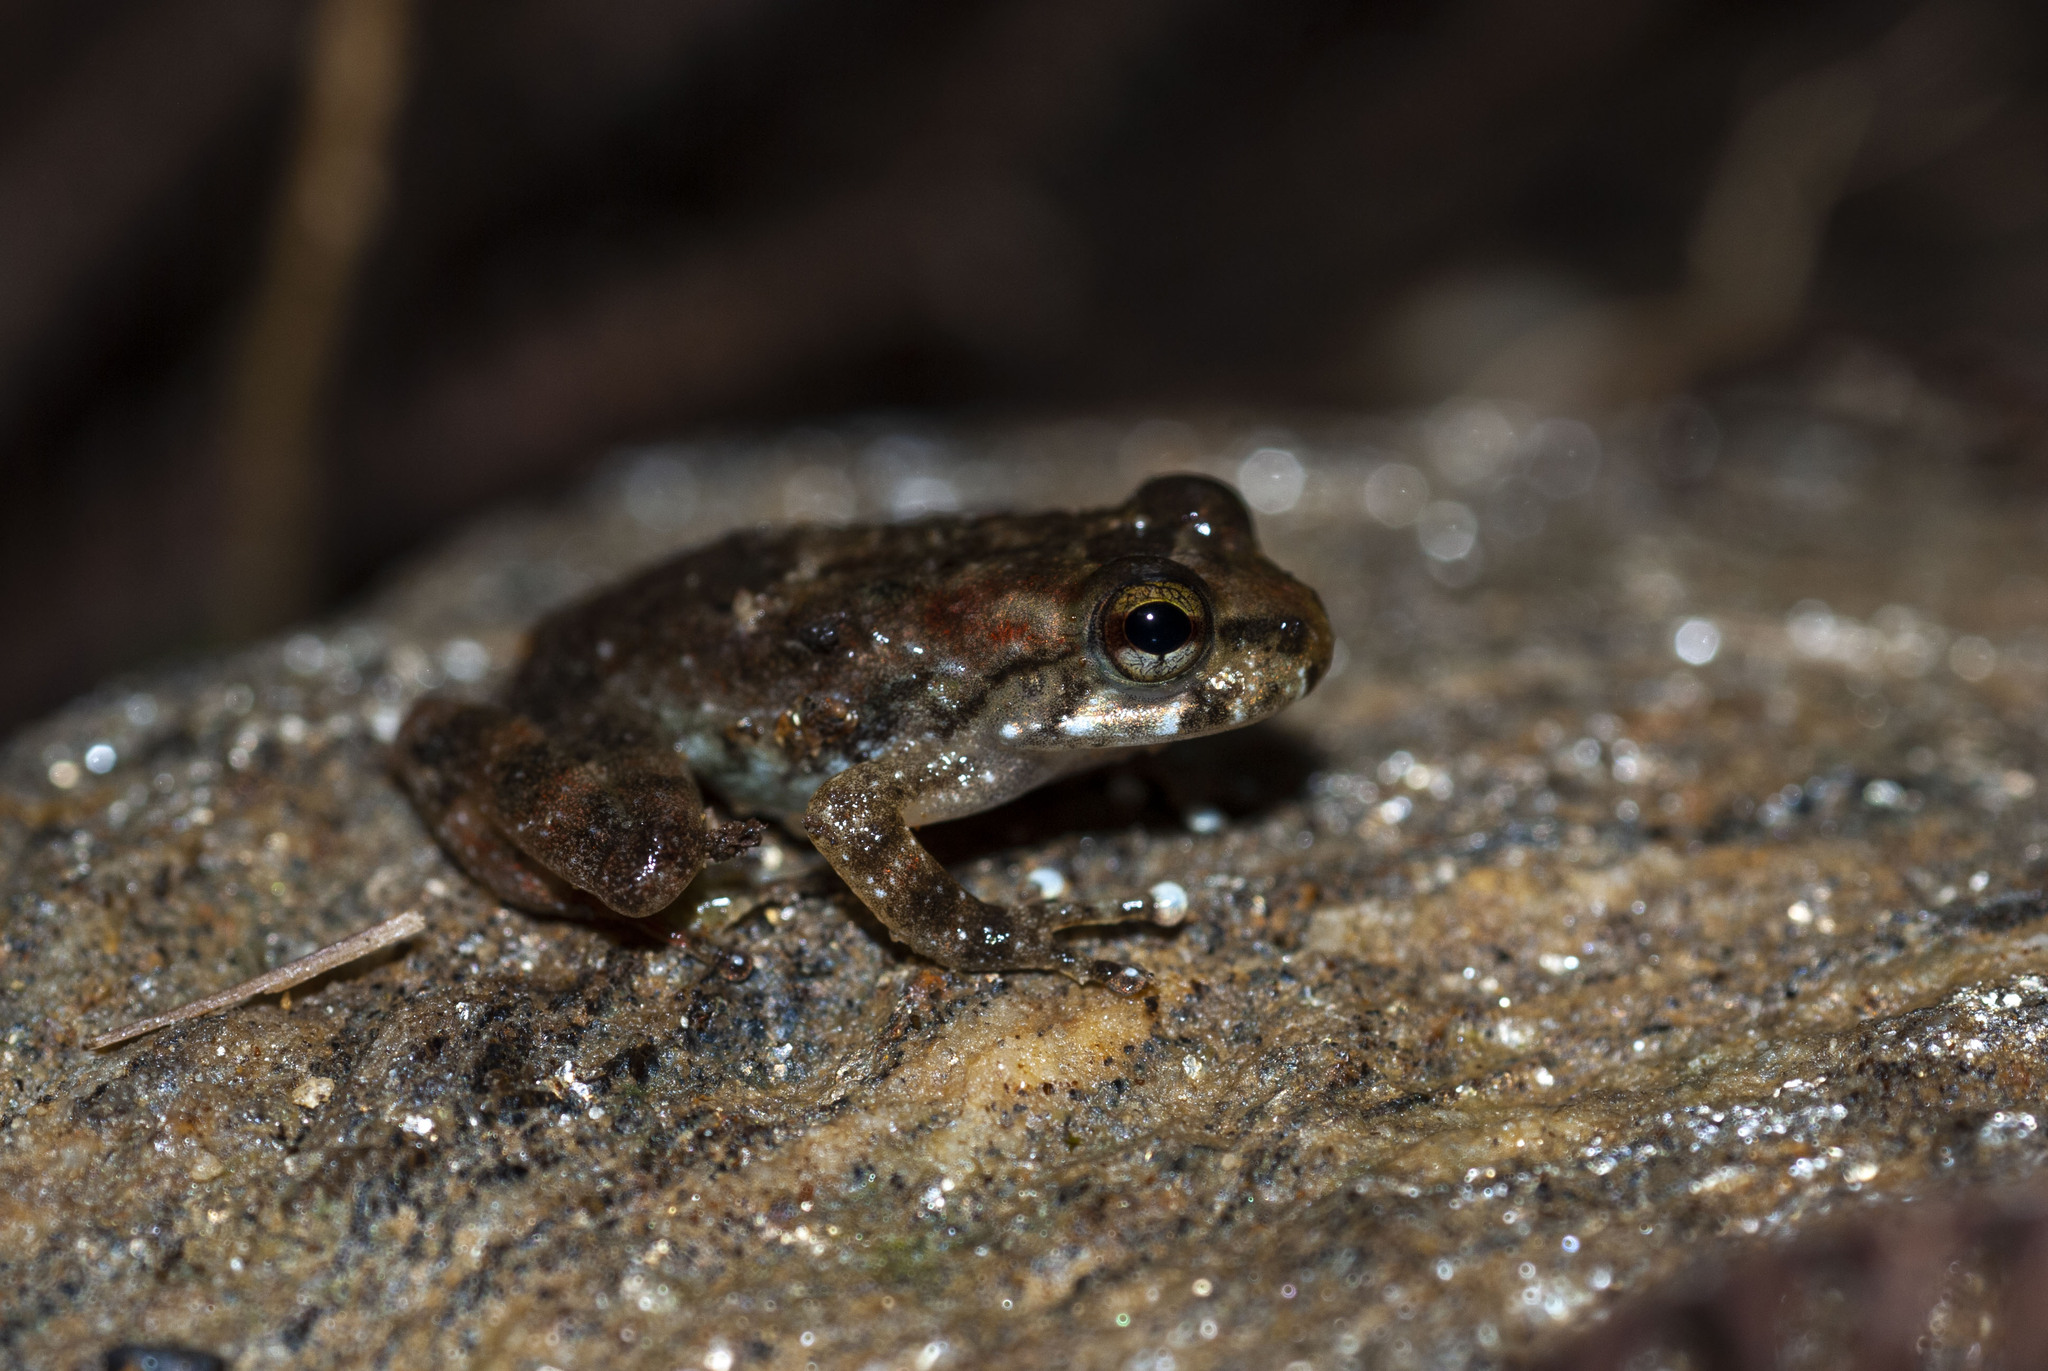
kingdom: Animalia
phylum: Chordata
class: Amphibia
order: Anura
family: Hemiphractidae
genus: Cryptobatrachus
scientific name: Cryptobatrachus boulengeri
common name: Boulenger's backpack frog
